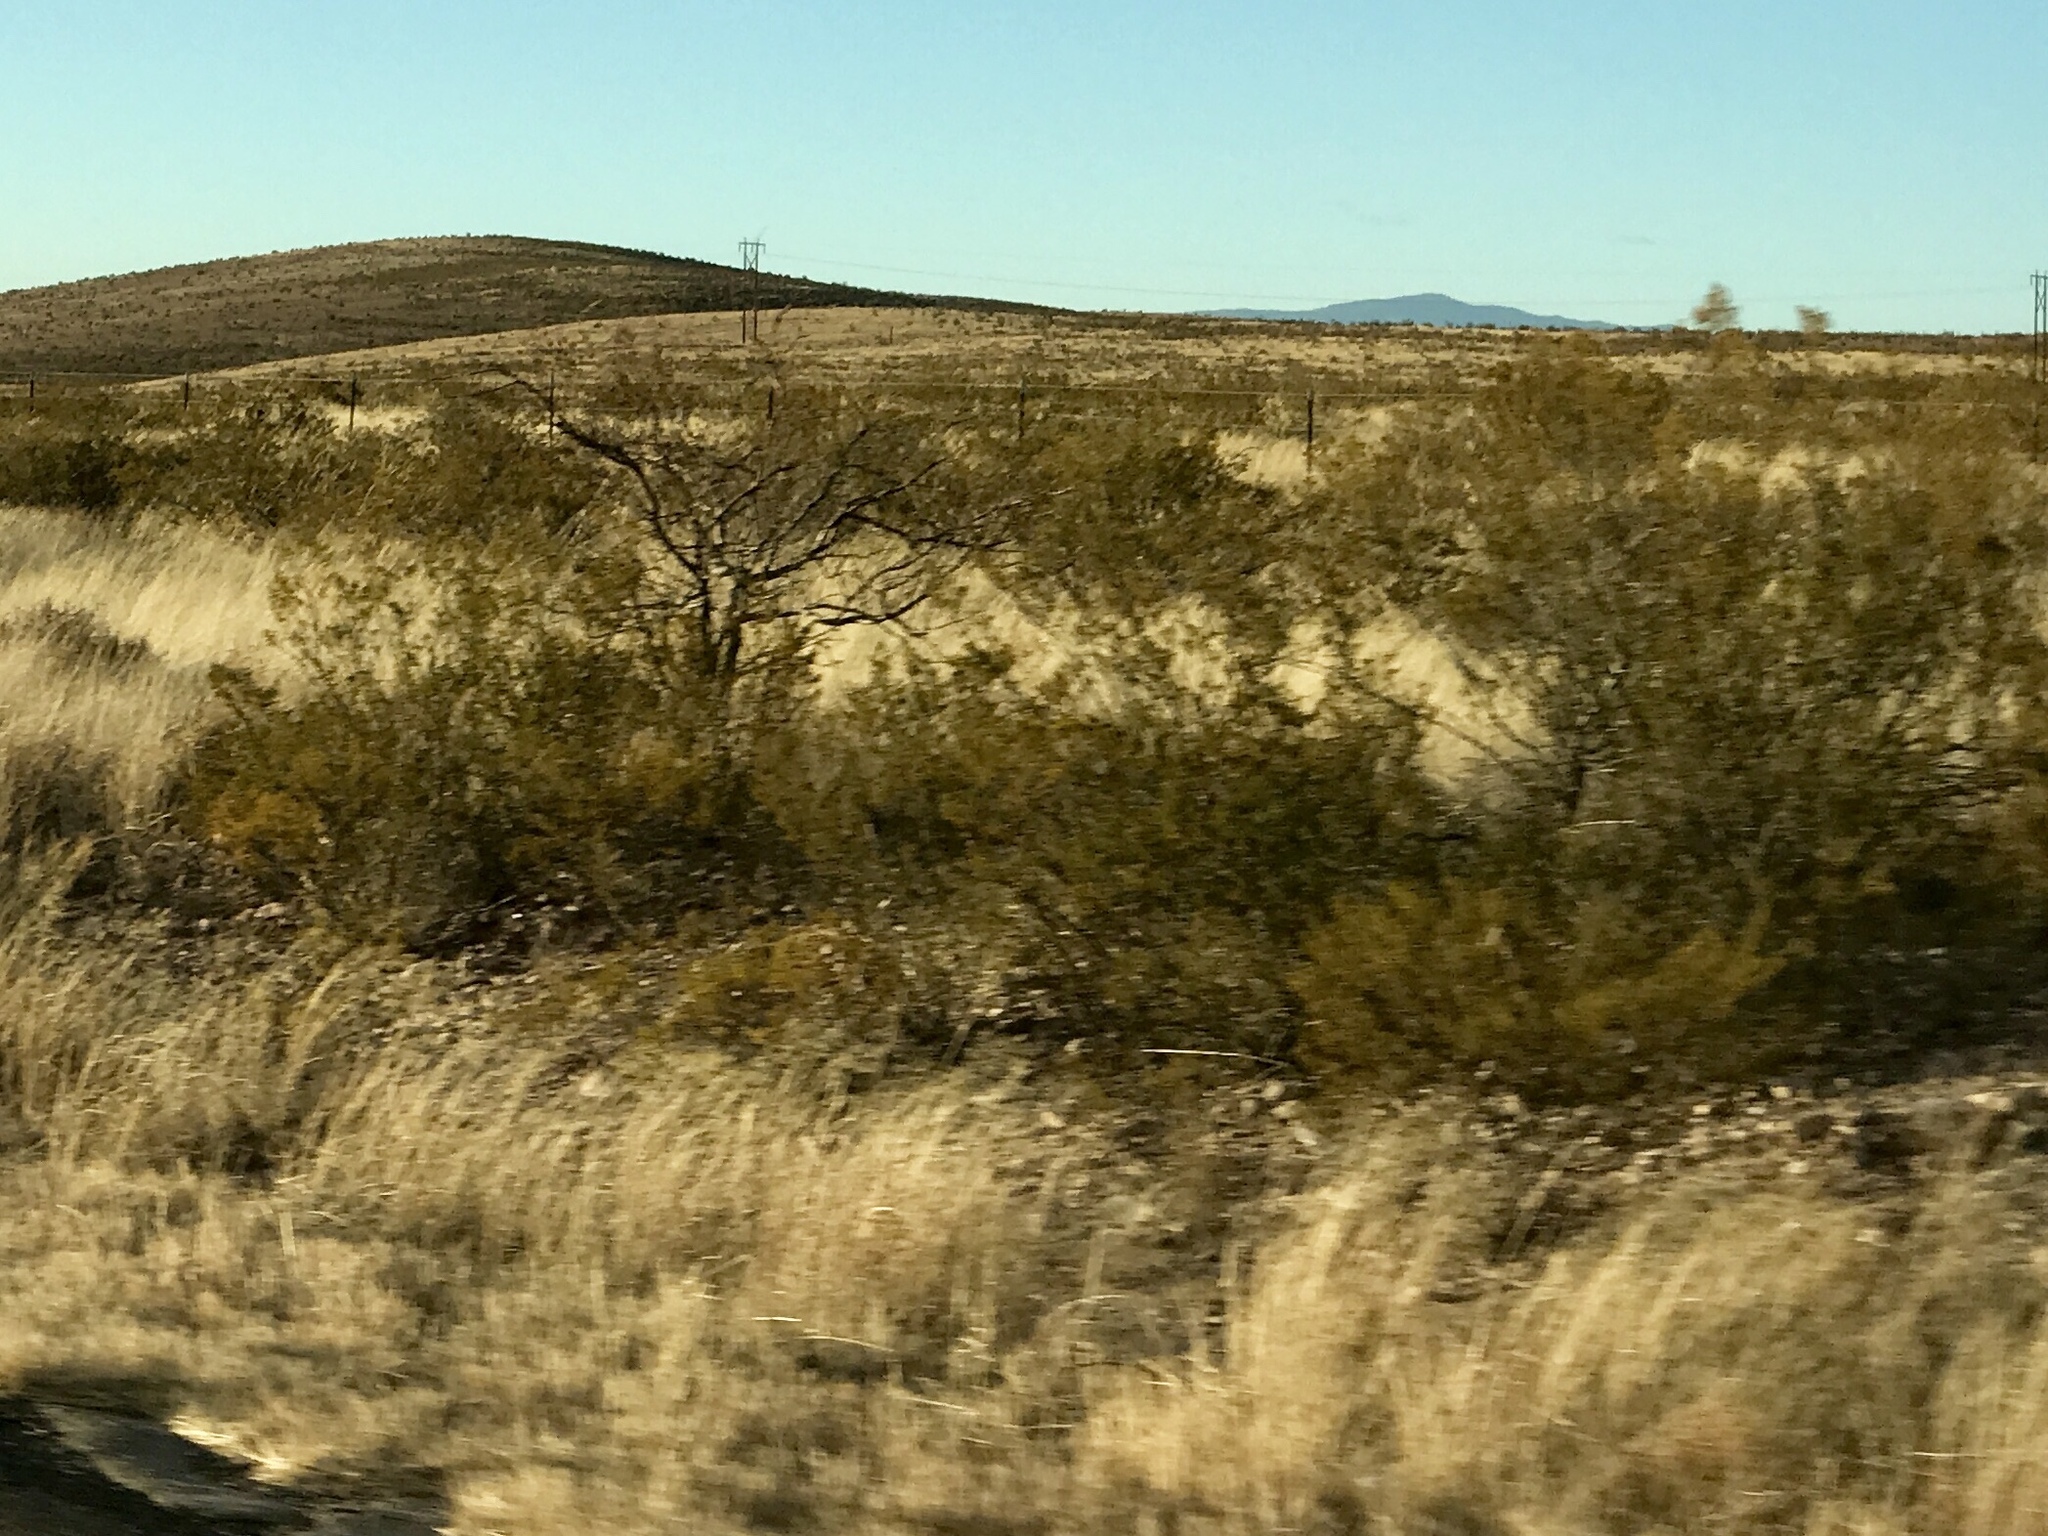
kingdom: Plantae
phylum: Tracheophyta
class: Magnoliopsida
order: Zygophyllales
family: Zygophyllaceae
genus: Larrea
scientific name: Larrea tridentata
